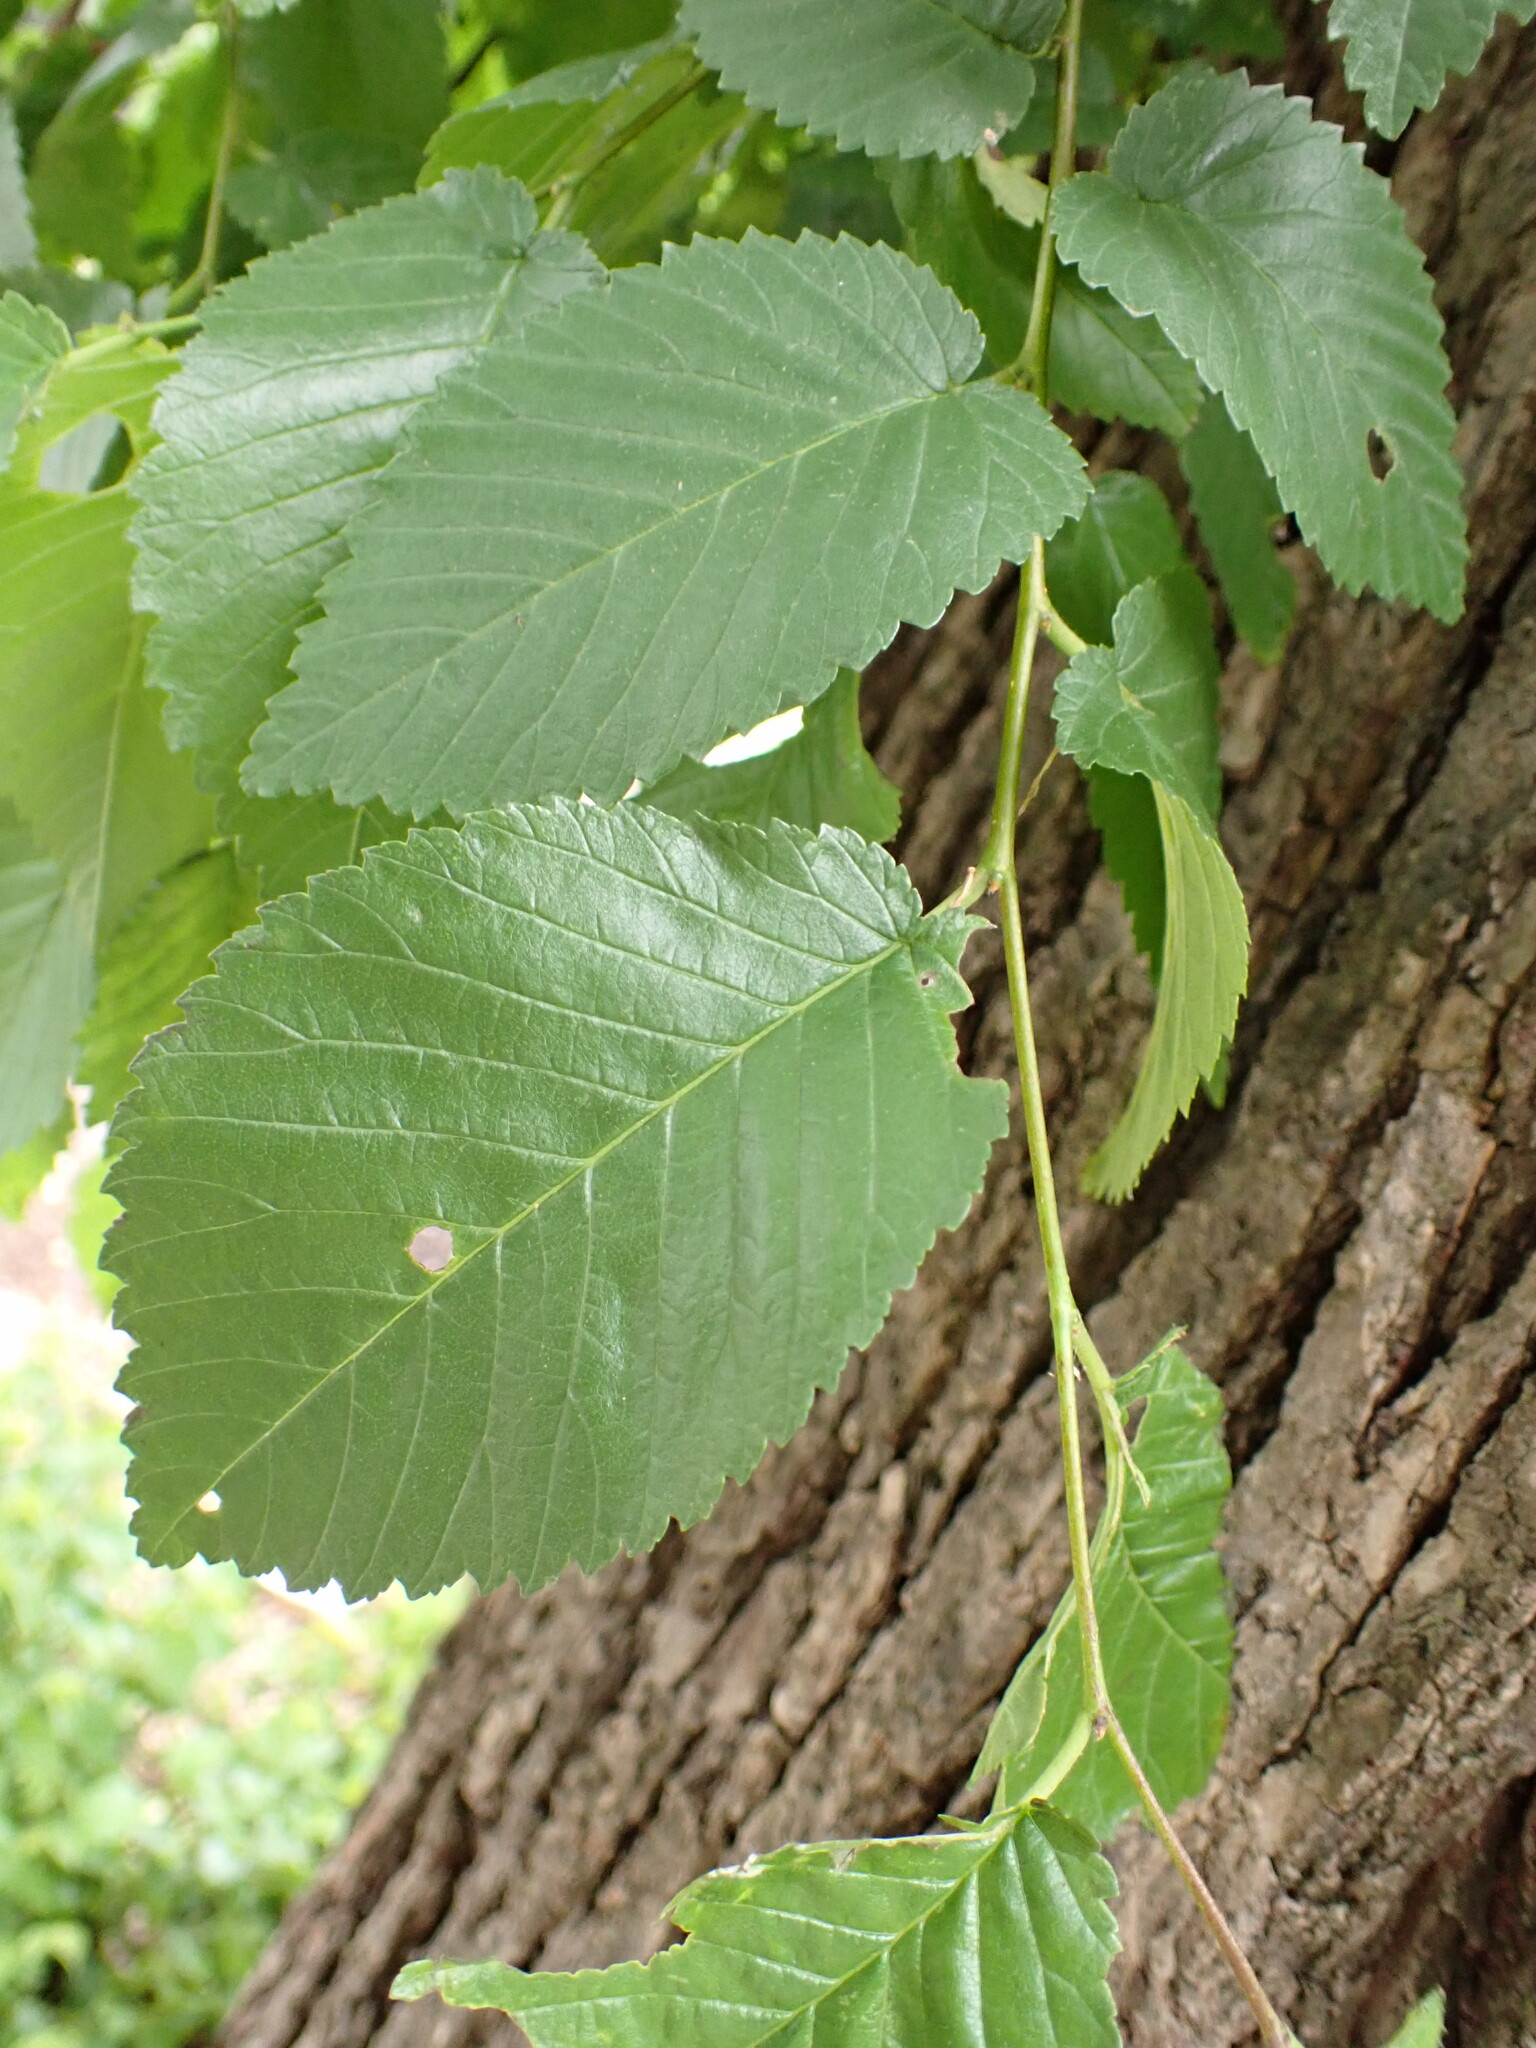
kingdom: Animalia
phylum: Arthropoda
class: Insecta
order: Diptera
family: Agromyzidae
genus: Agromyza
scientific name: Agromyza aristata
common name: Elm agromyzid leafminer
